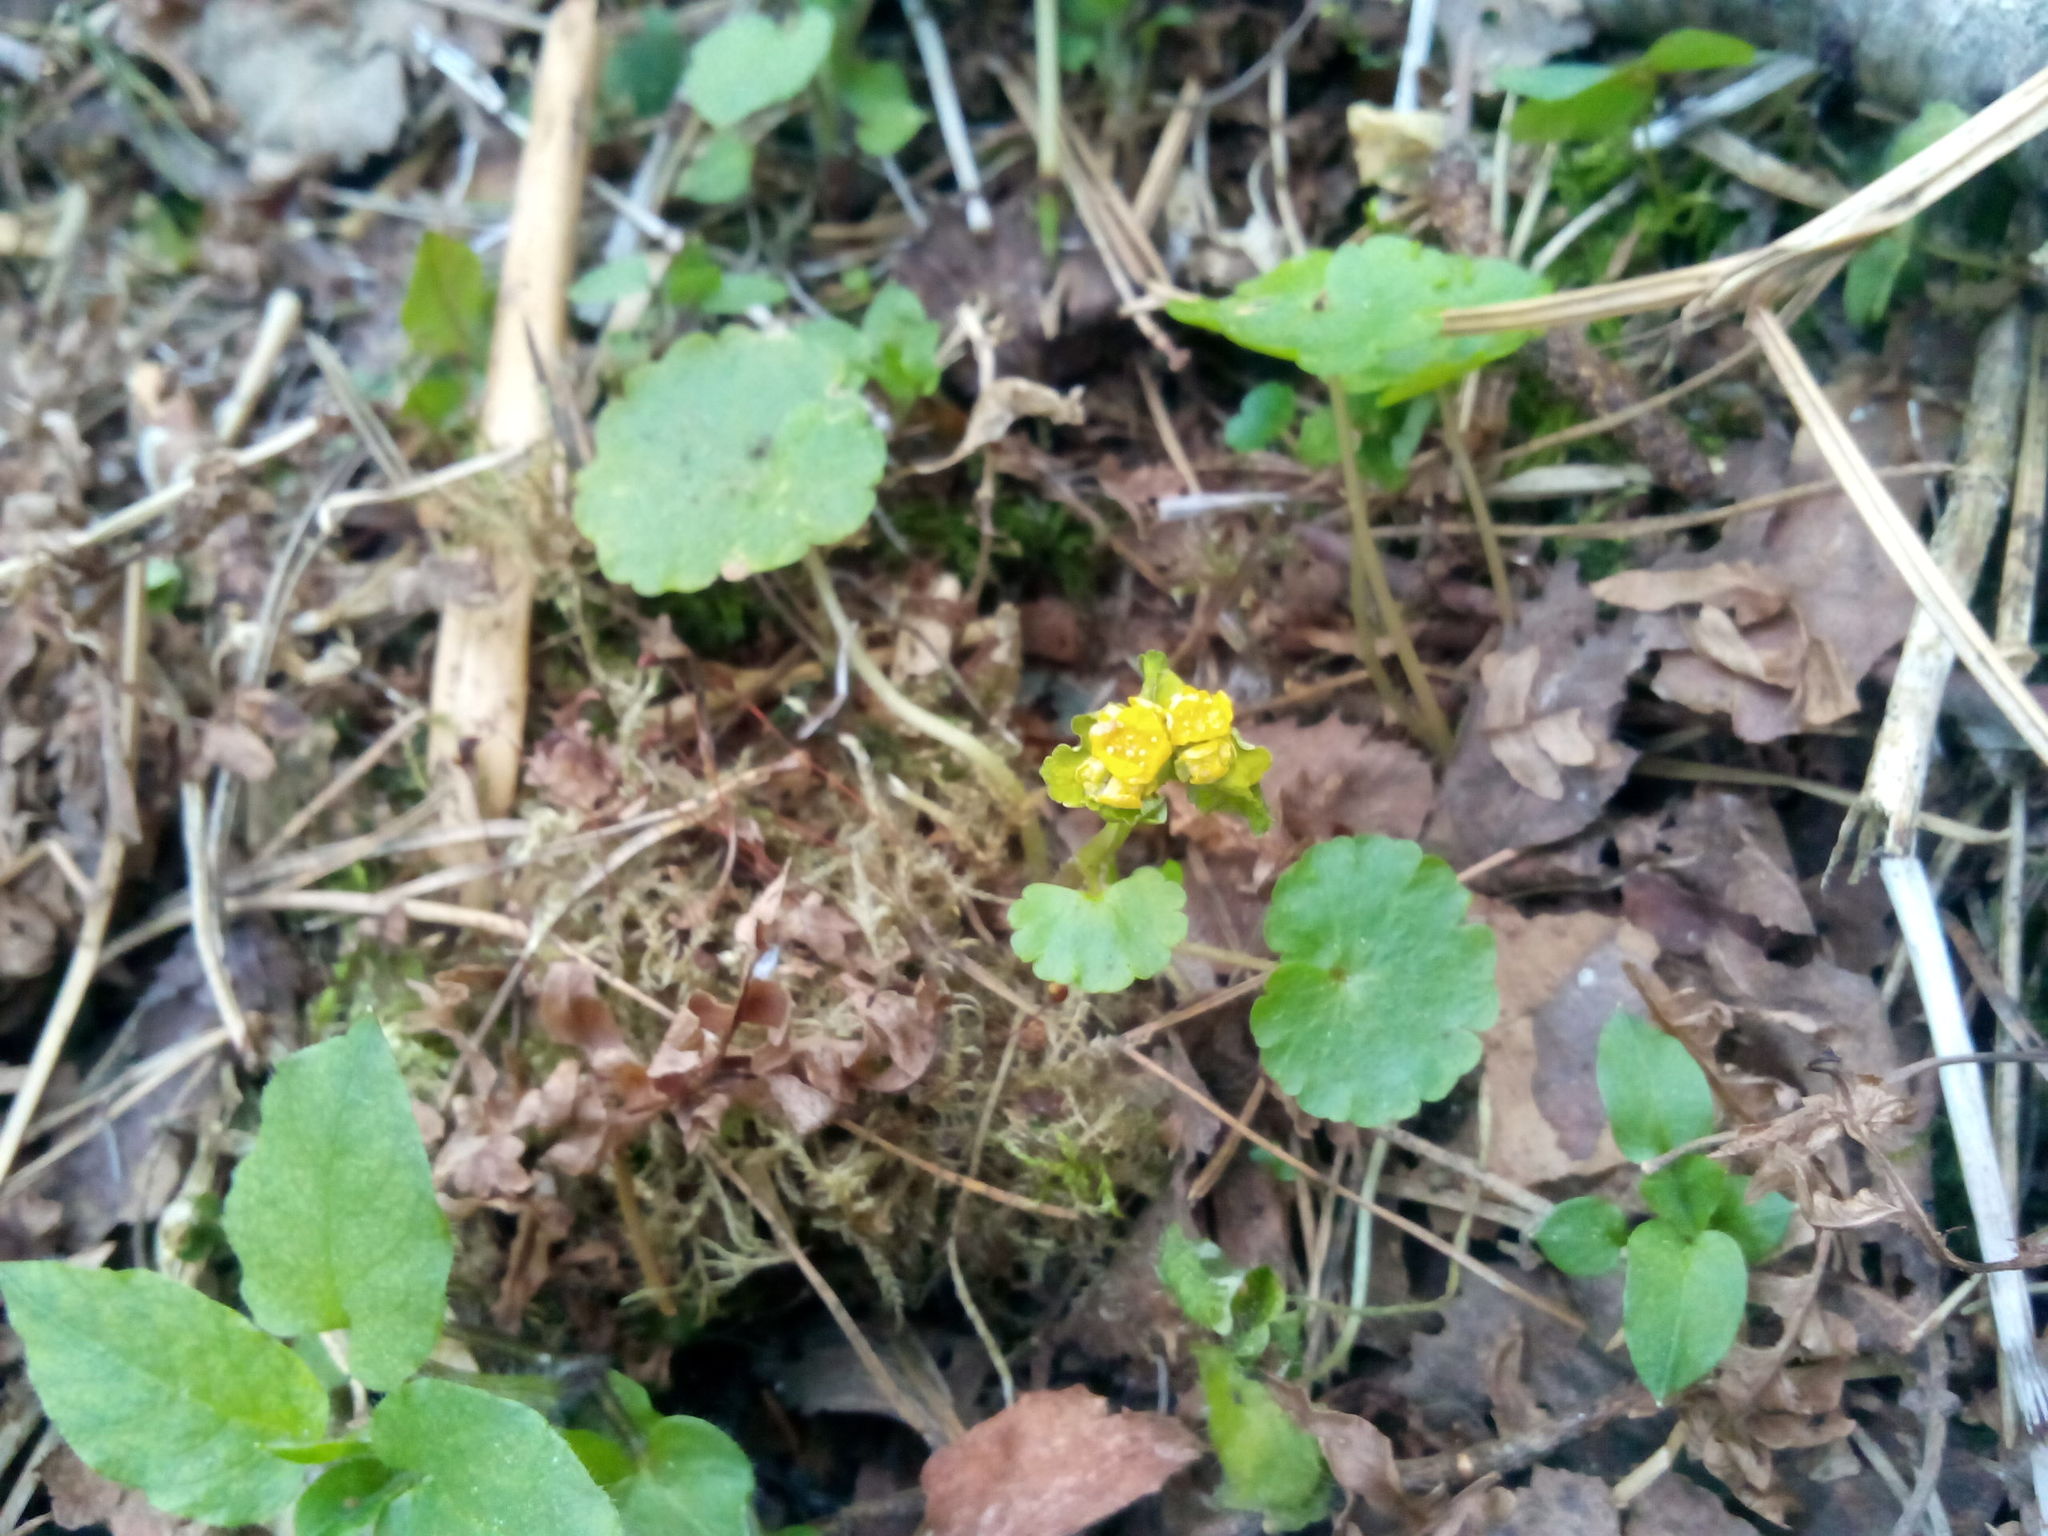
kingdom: Plantae
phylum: Tracheophyta
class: Magnoliopsida
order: Saxifragales
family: Saxifragaceae
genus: Chrysosplenium
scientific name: Chrysosplenium alternifolium
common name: Alternate-leaved golden-saxifrage
